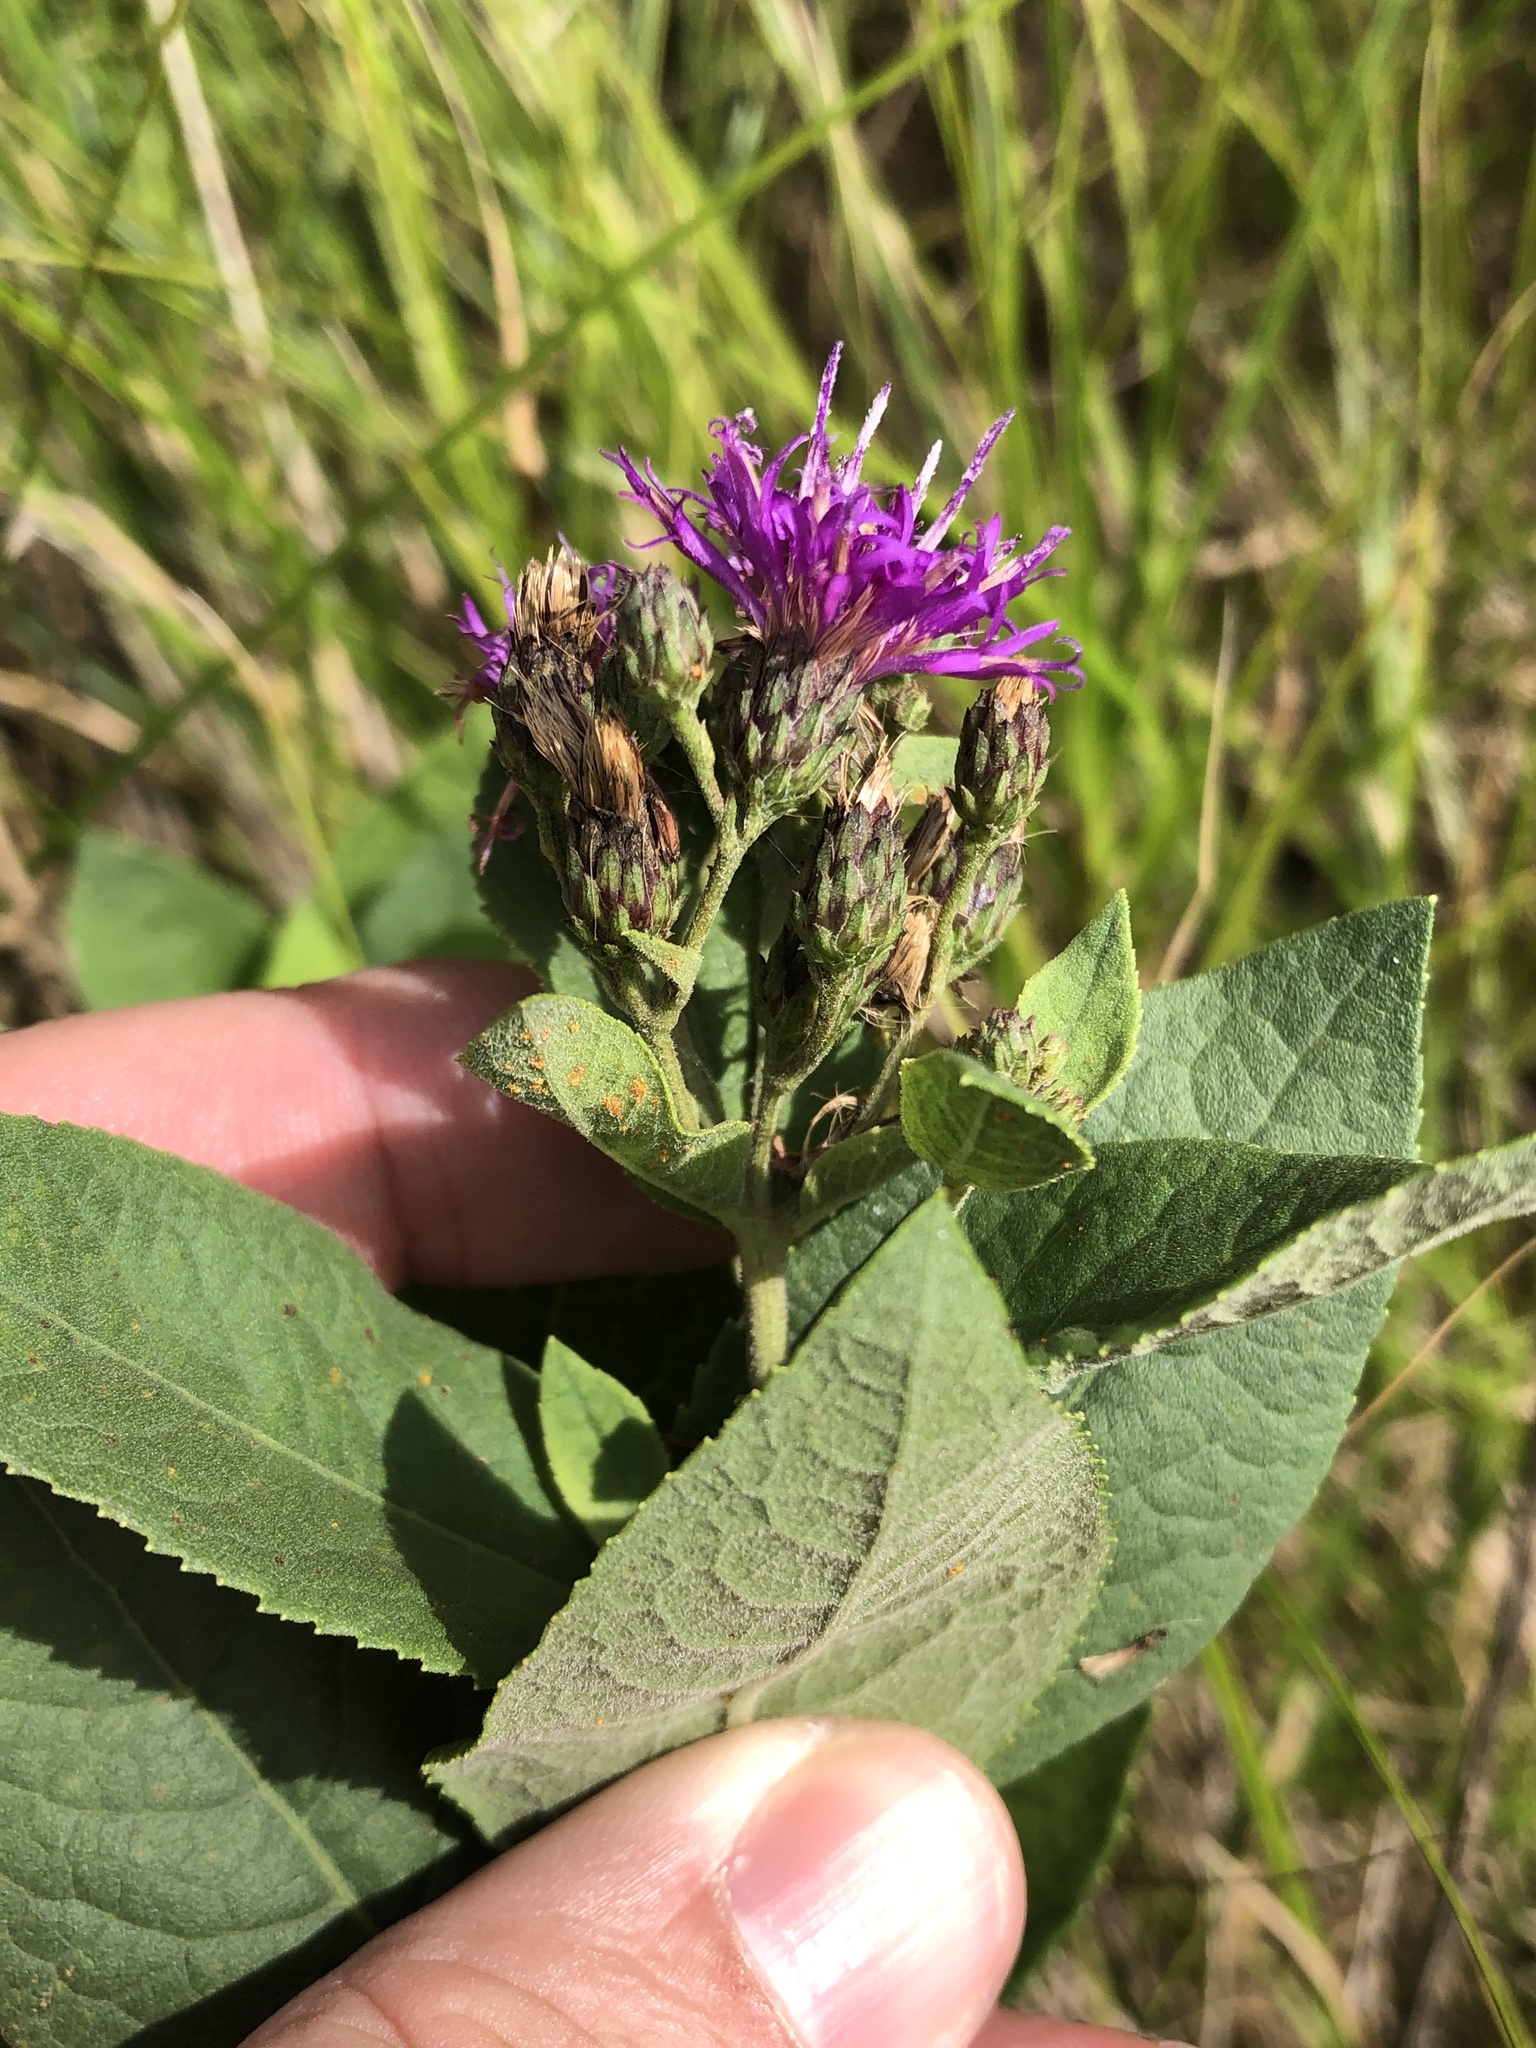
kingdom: Plantae
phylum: Tracheophyta
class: Magnoliopsida
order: Asterales
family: Asteraceae
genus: Vernonia
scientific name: Vernonia baldwinii
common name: Western ironweed
